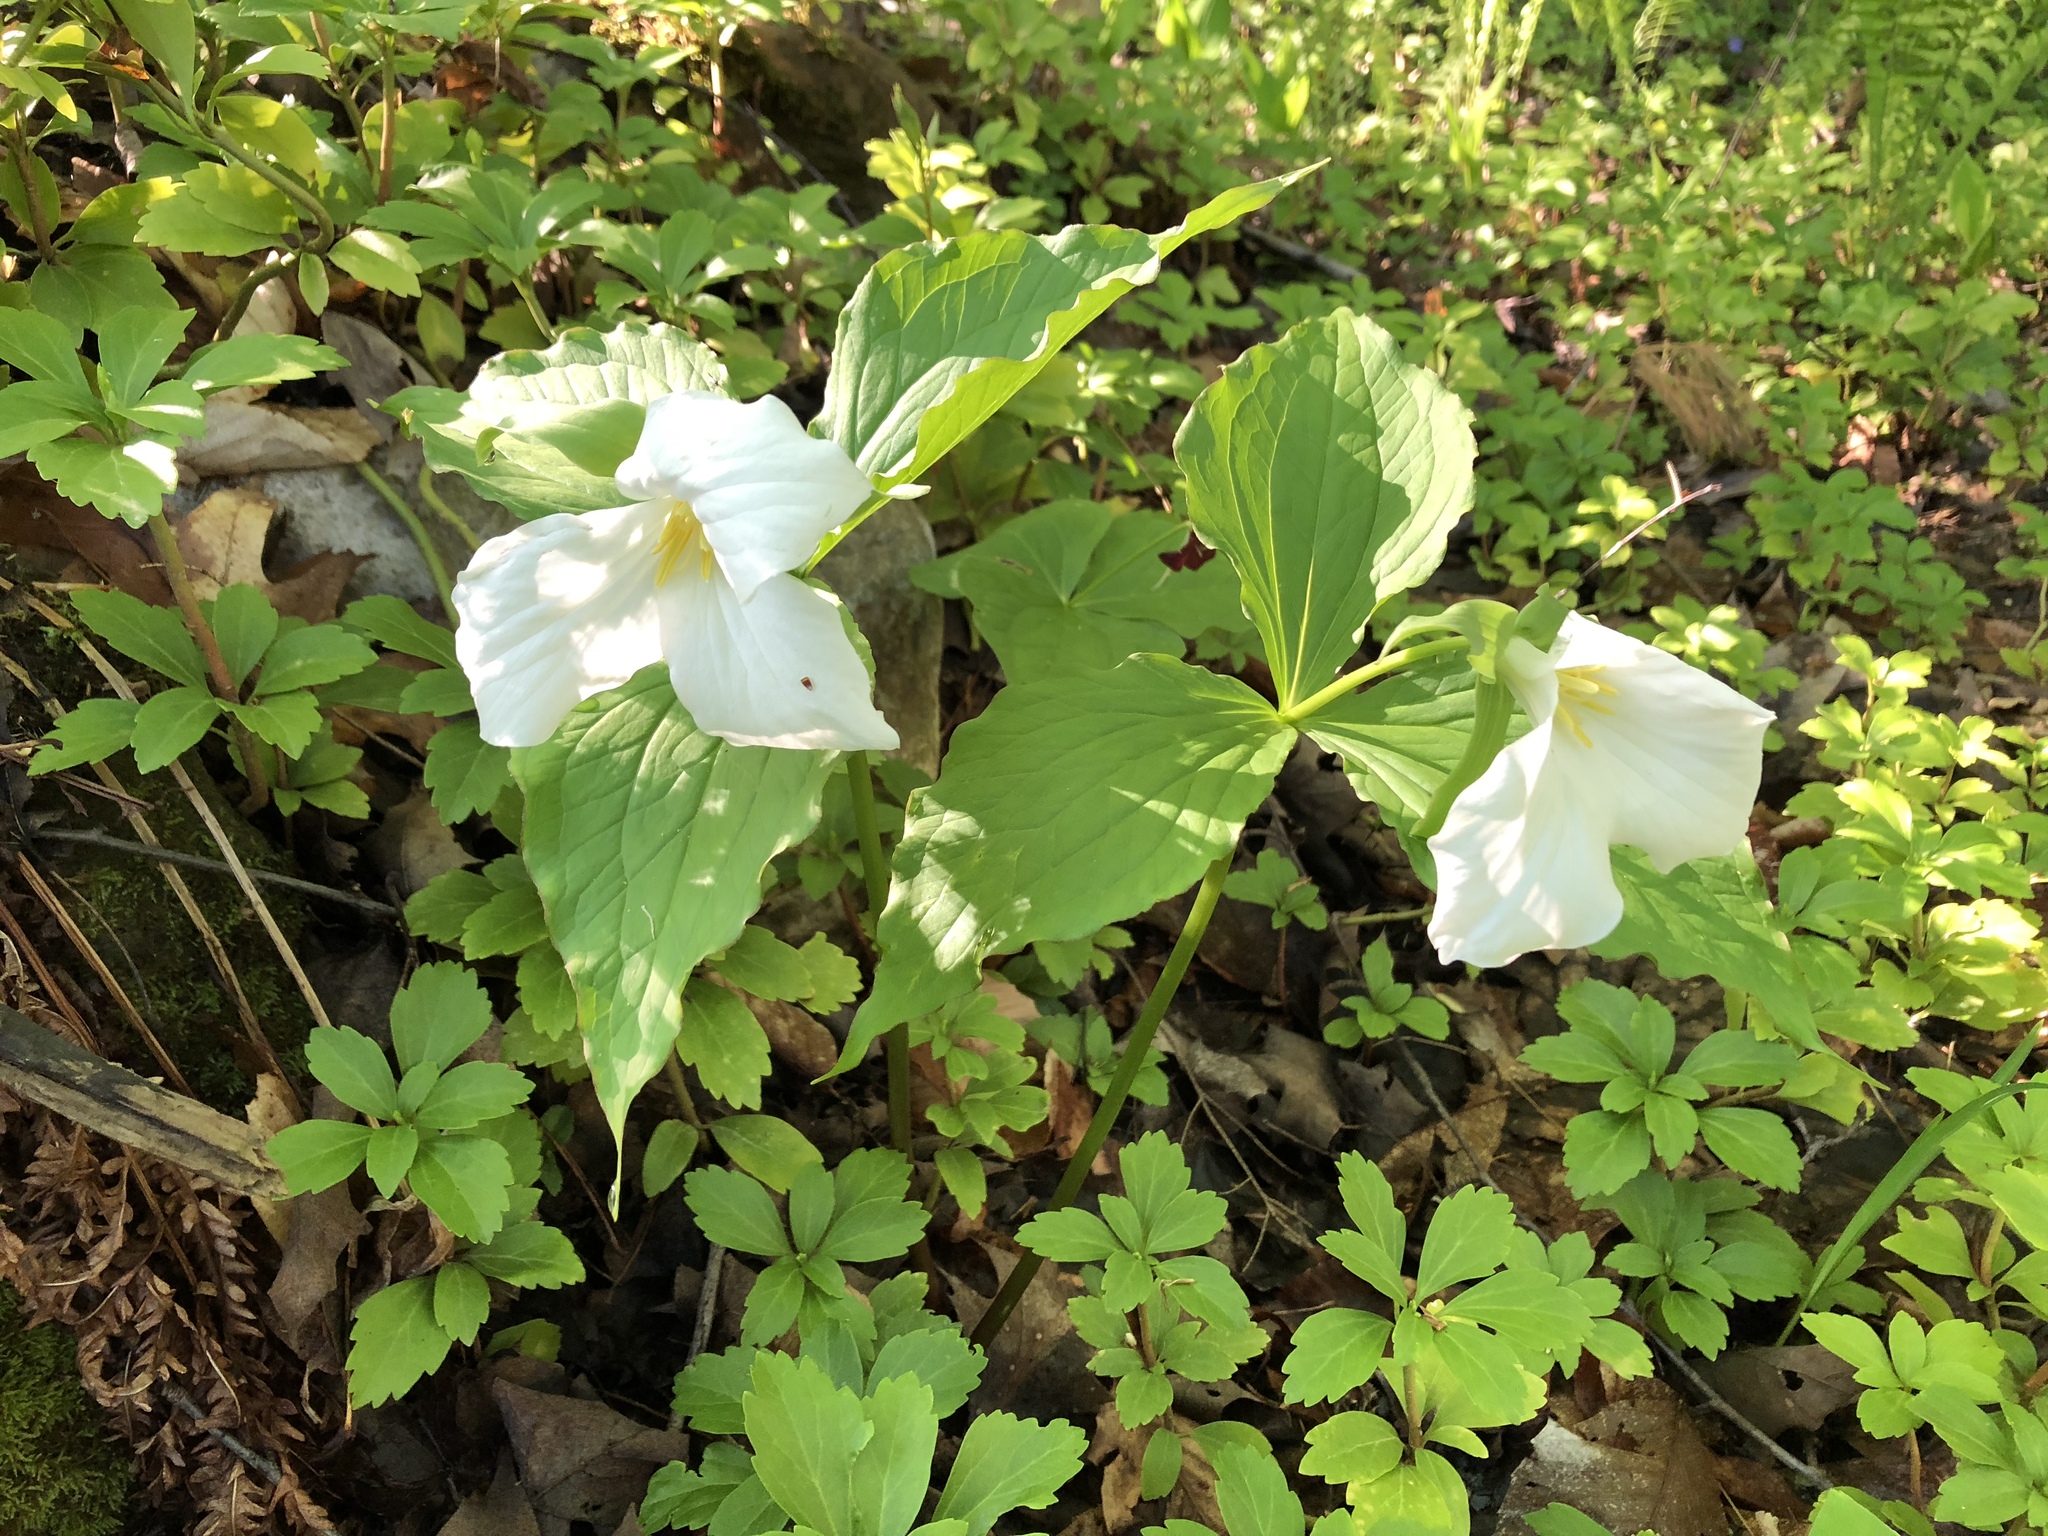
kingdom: Plantae
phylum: Tracheophyta
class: Liliopsida
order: Liliales
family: Melanthiaceae
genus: Trillium
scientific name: Trillium grandiflorum
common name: Great white trillium
